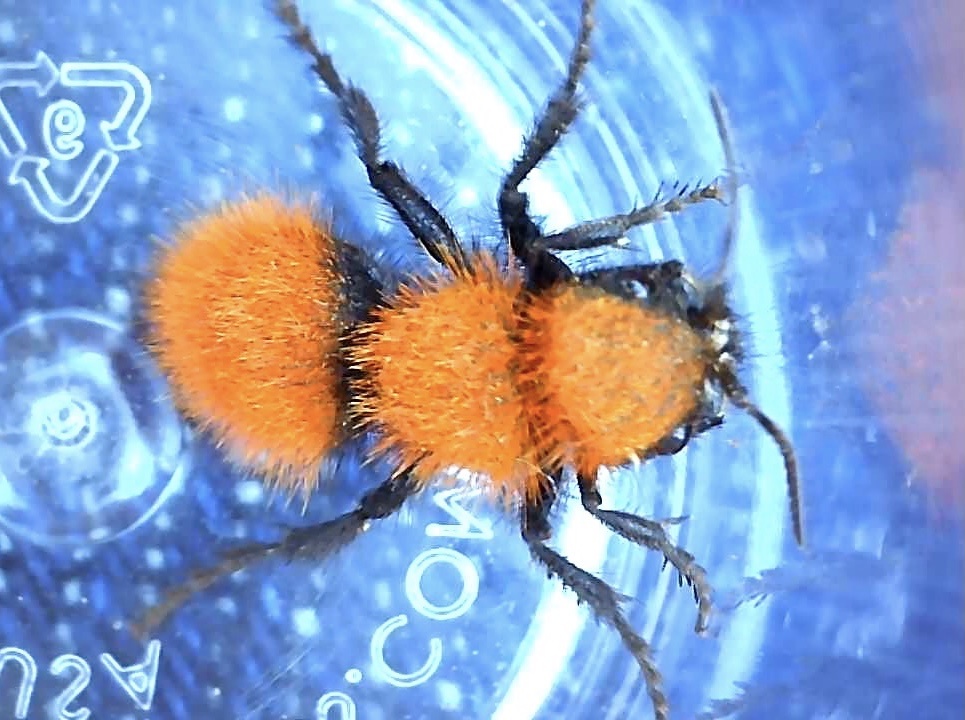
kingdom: Animalia
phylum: Arthropoda
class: Insecta
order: Hymenoptera
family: Mutillidae
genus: Dasymutilla
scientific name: Dasymutilla
